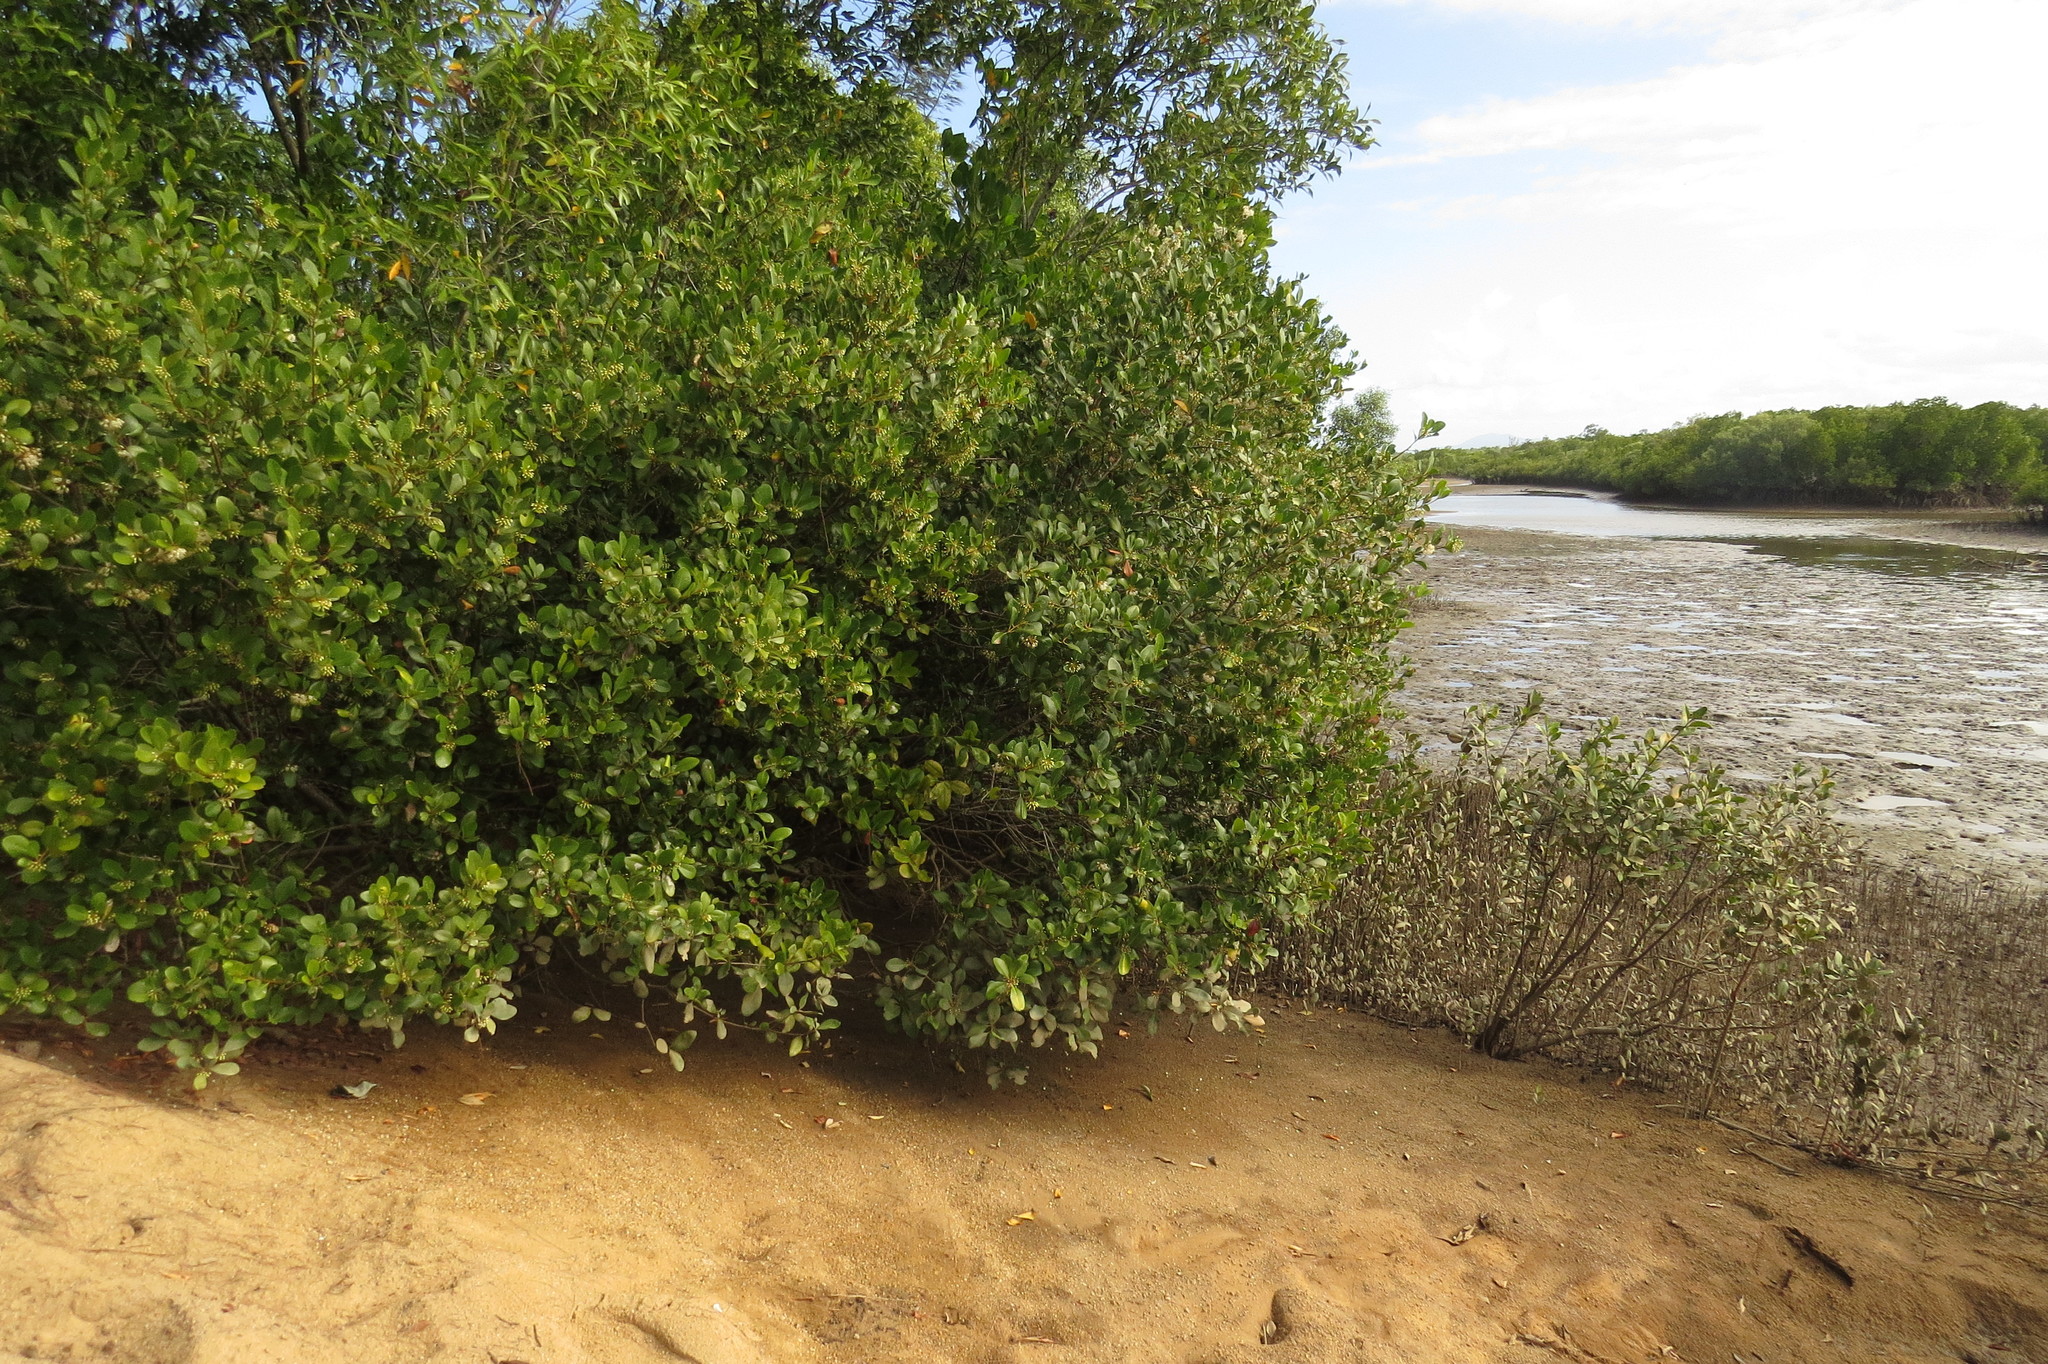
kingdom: Plantae
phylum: Tracheophyta
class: Magnoliopsida
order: Ericales
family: Primulaceae
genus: Aegiceras
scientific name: Aegiceras corniculatum
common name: River mangrove
